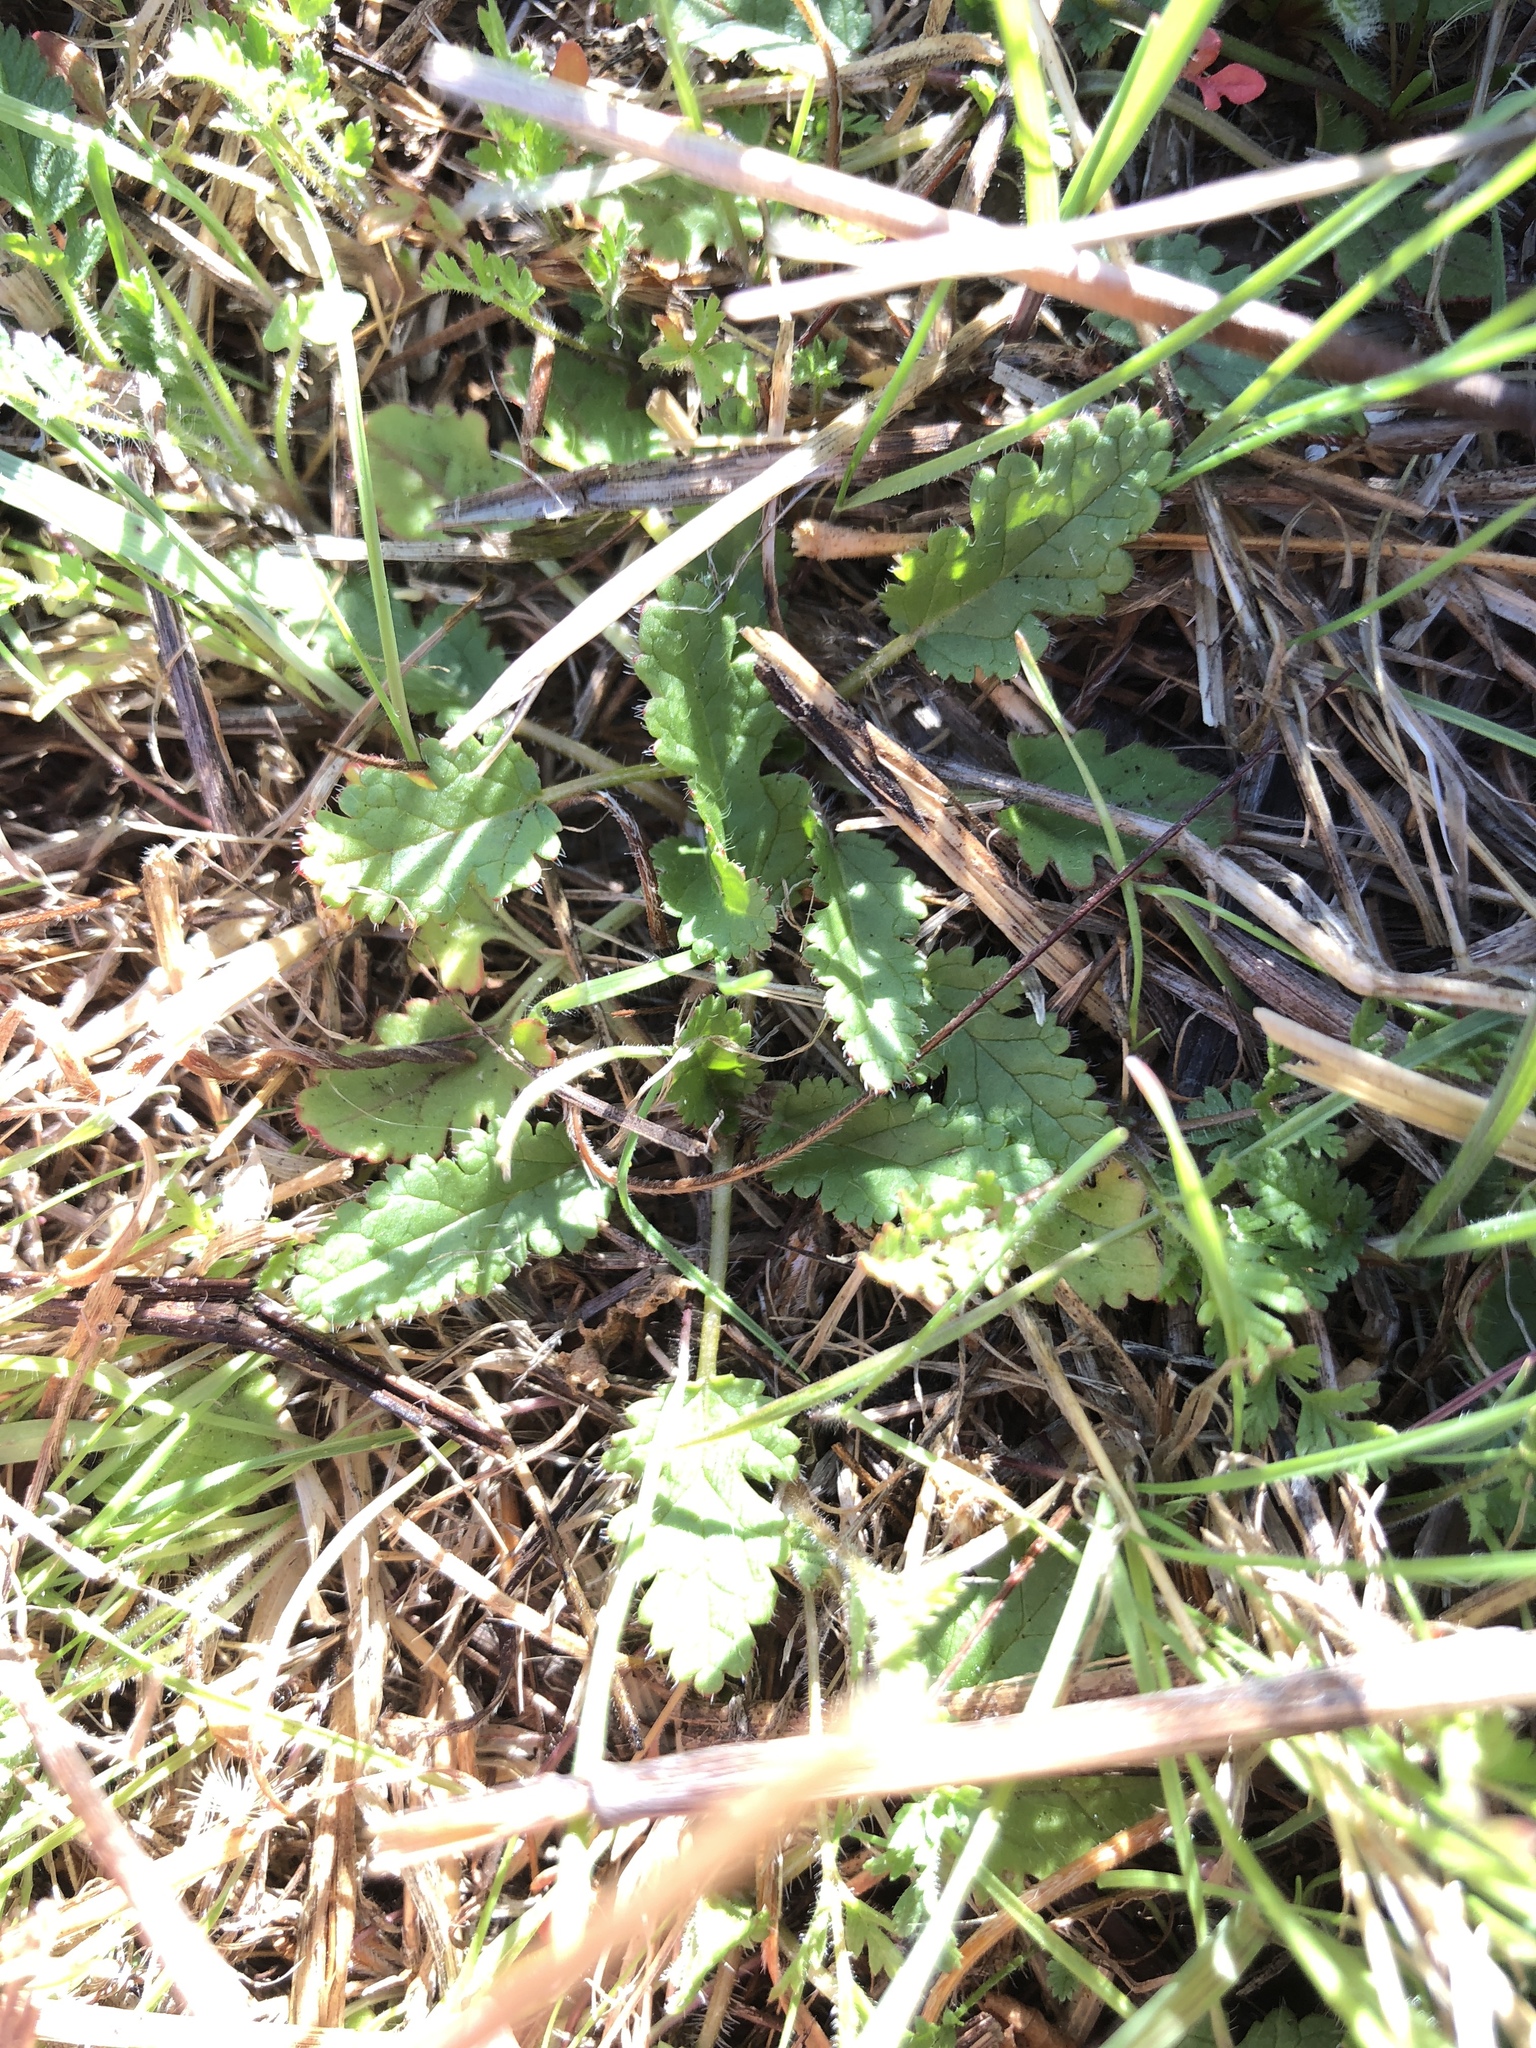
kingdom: Plantae
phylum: Tracheophyta
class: Magnoliopsida
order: Geraniales
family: Geraniaceae
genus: Erodium
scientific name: Erodium
